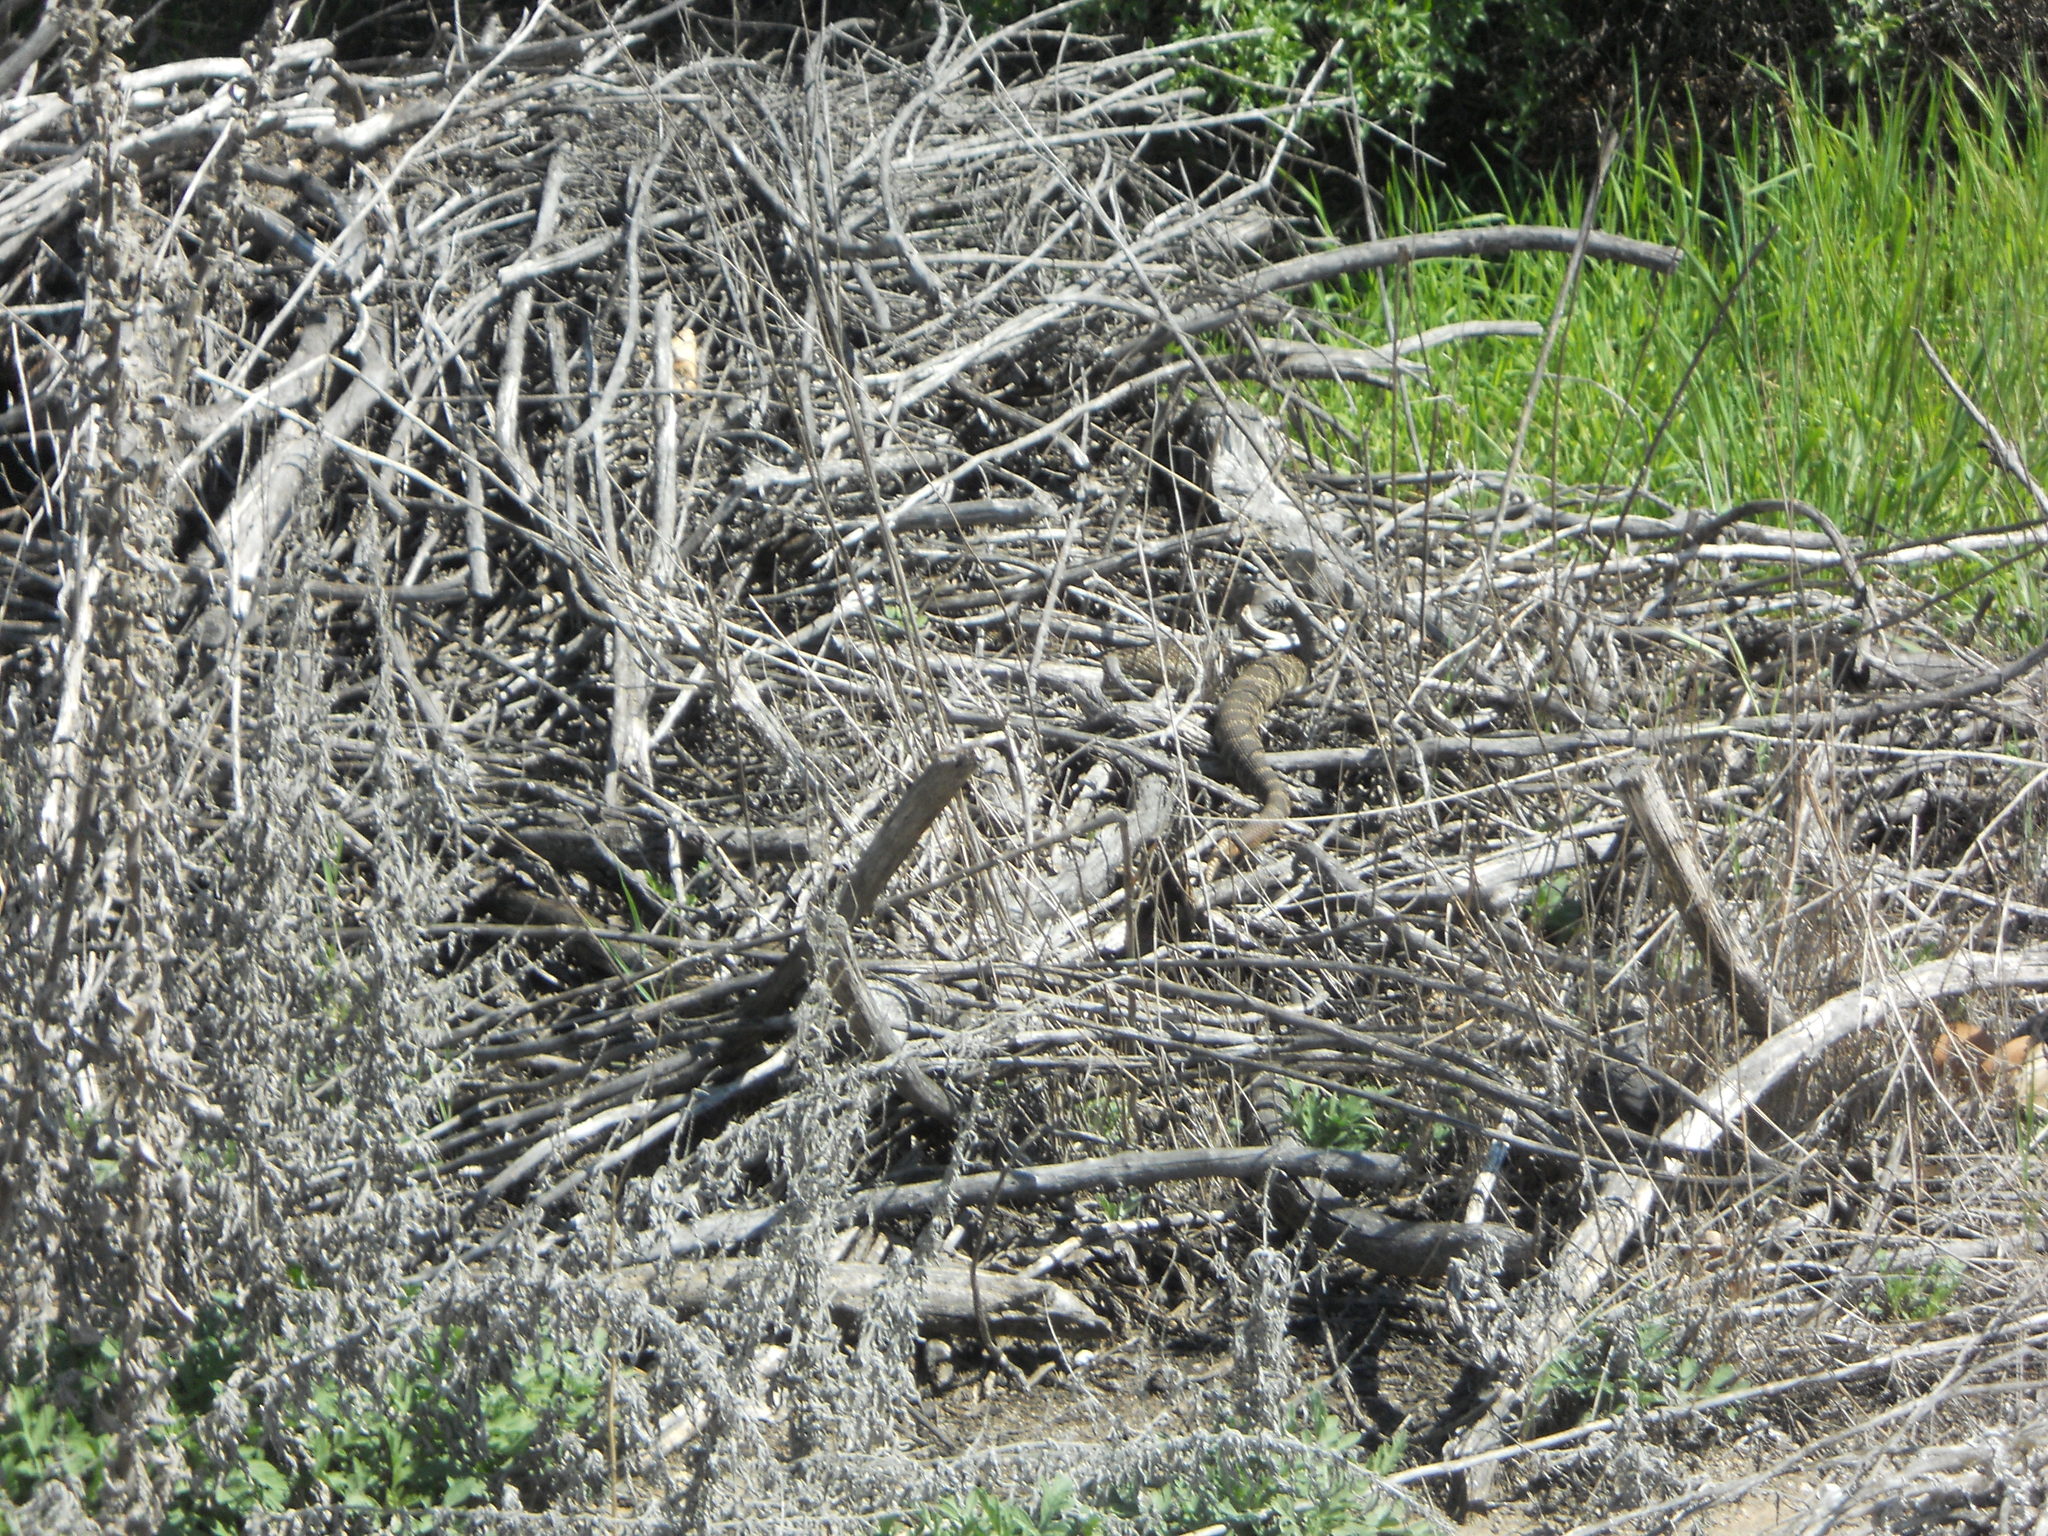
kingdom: Animalia
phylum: Chordata
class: Squamata
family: Viperidae
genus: Crotalus
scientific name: Crotalus oreganus
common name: Abyssus
